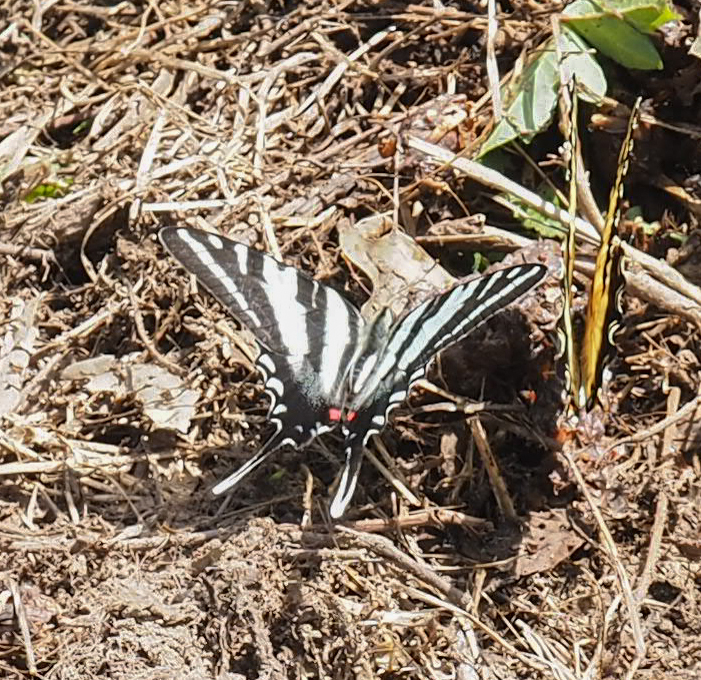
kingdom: Animalia
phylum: Arthropoda
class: Insecta
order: Lepidoptera
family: Papilionidae
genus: Protographium
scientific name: Protographium marcellus
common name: Zebra swallowtail
